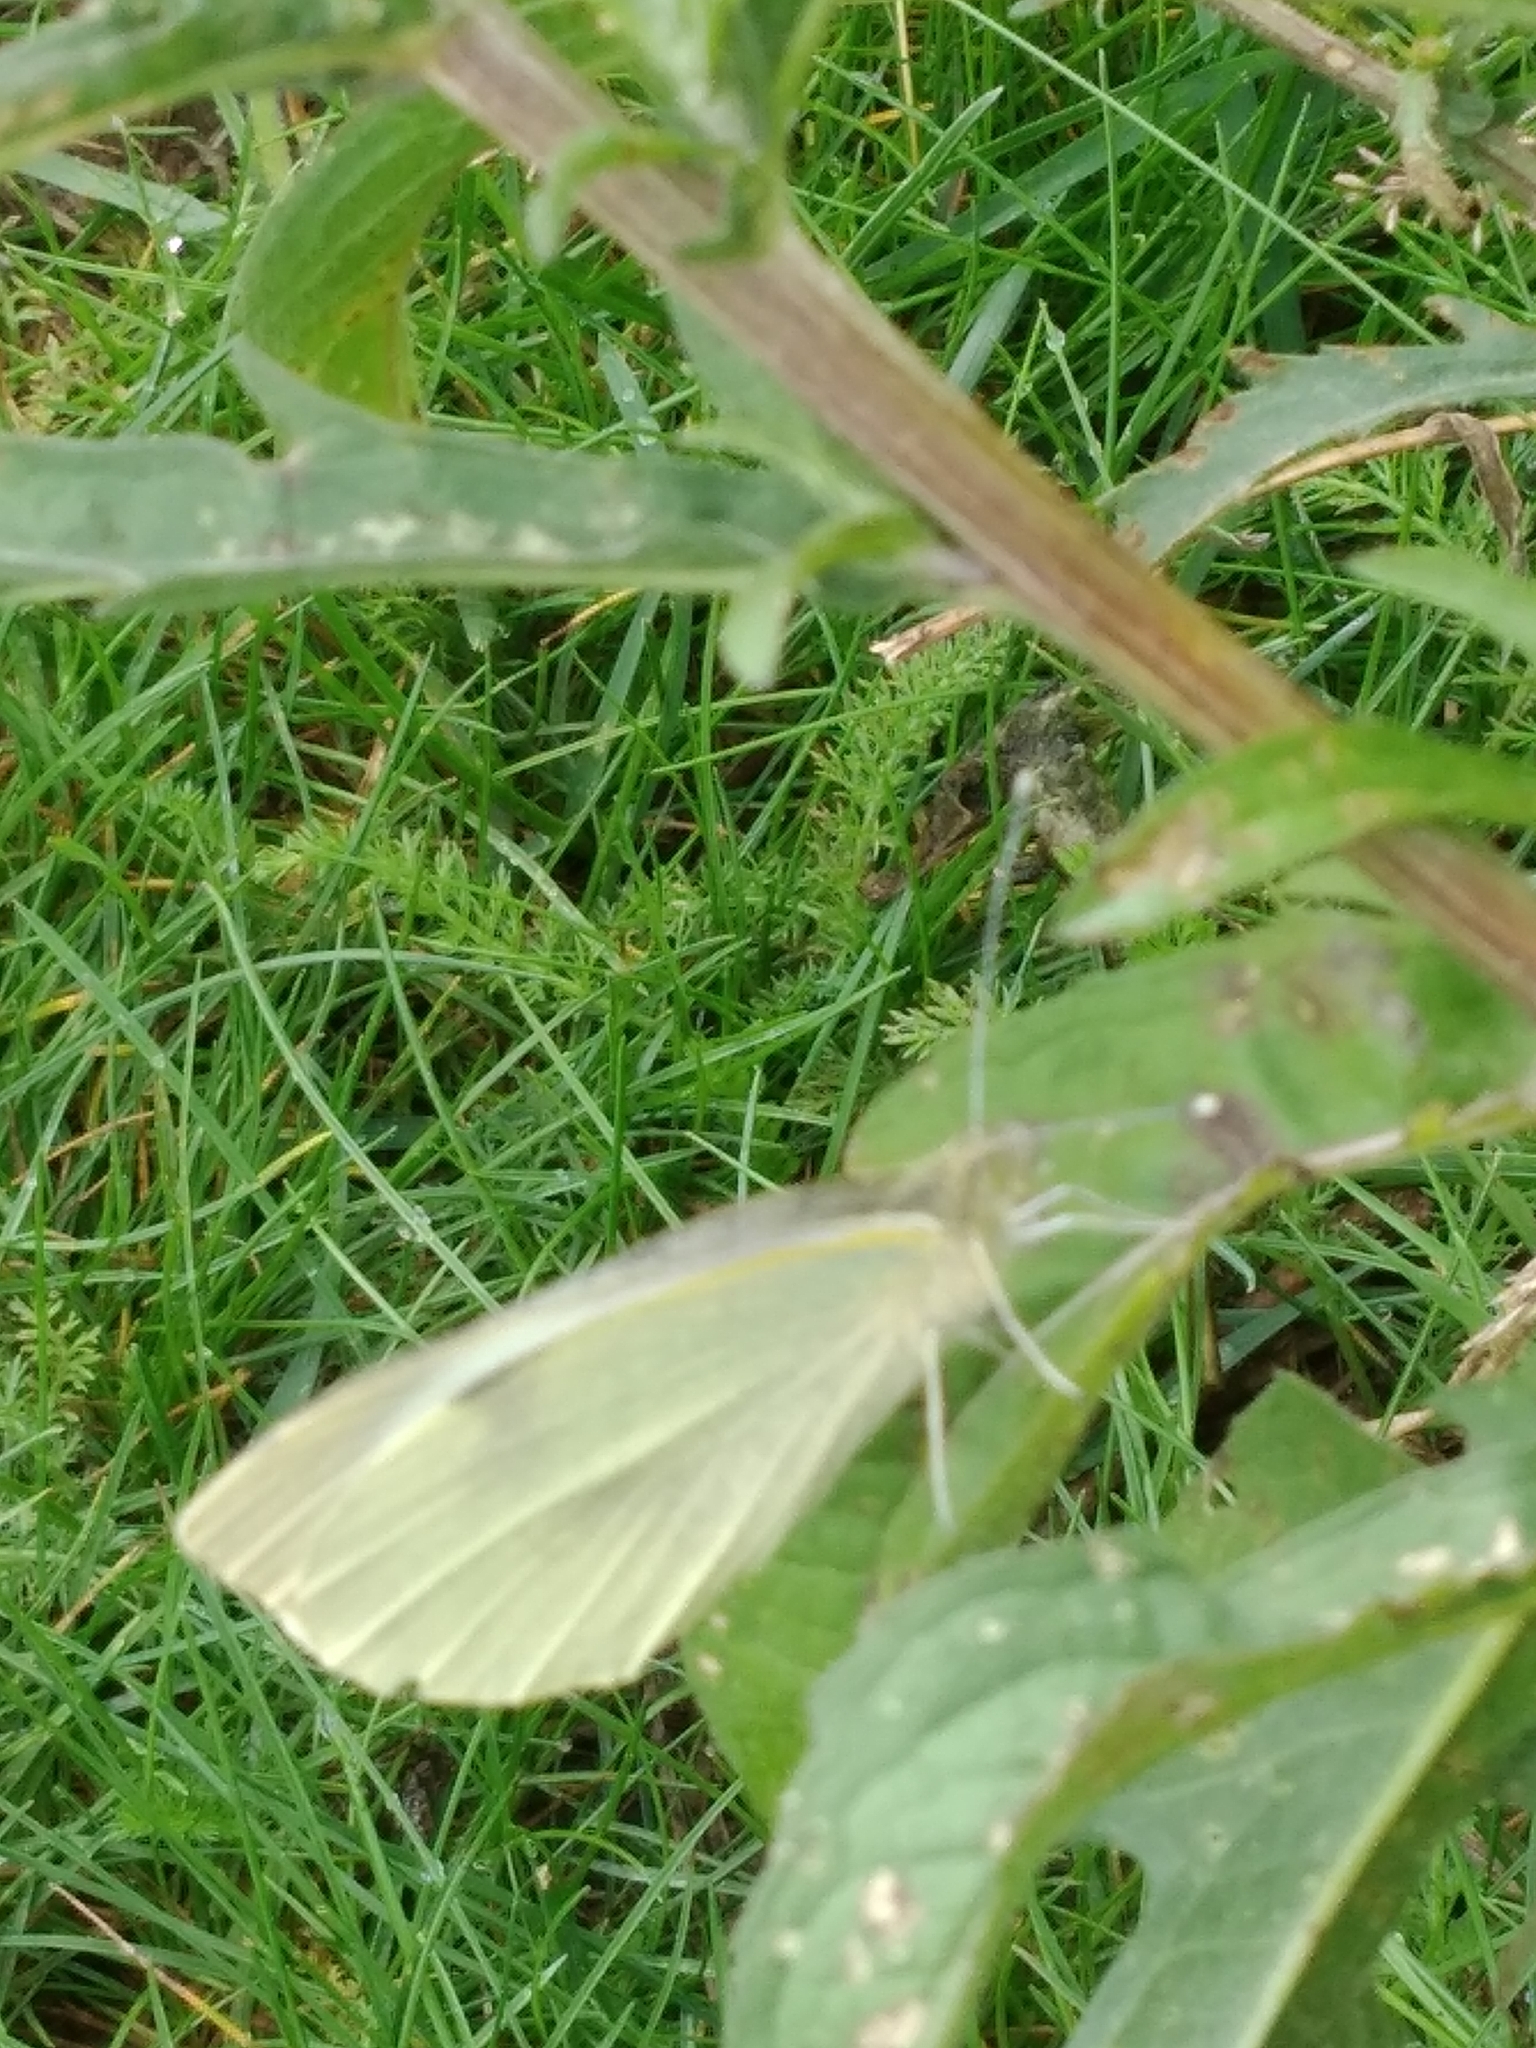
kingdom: Animalia
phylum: Arthropoda
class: Insecta
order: Lepidoptera
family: Pieridae
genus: Pieris
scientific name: Pieris brassicae
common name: Large white
